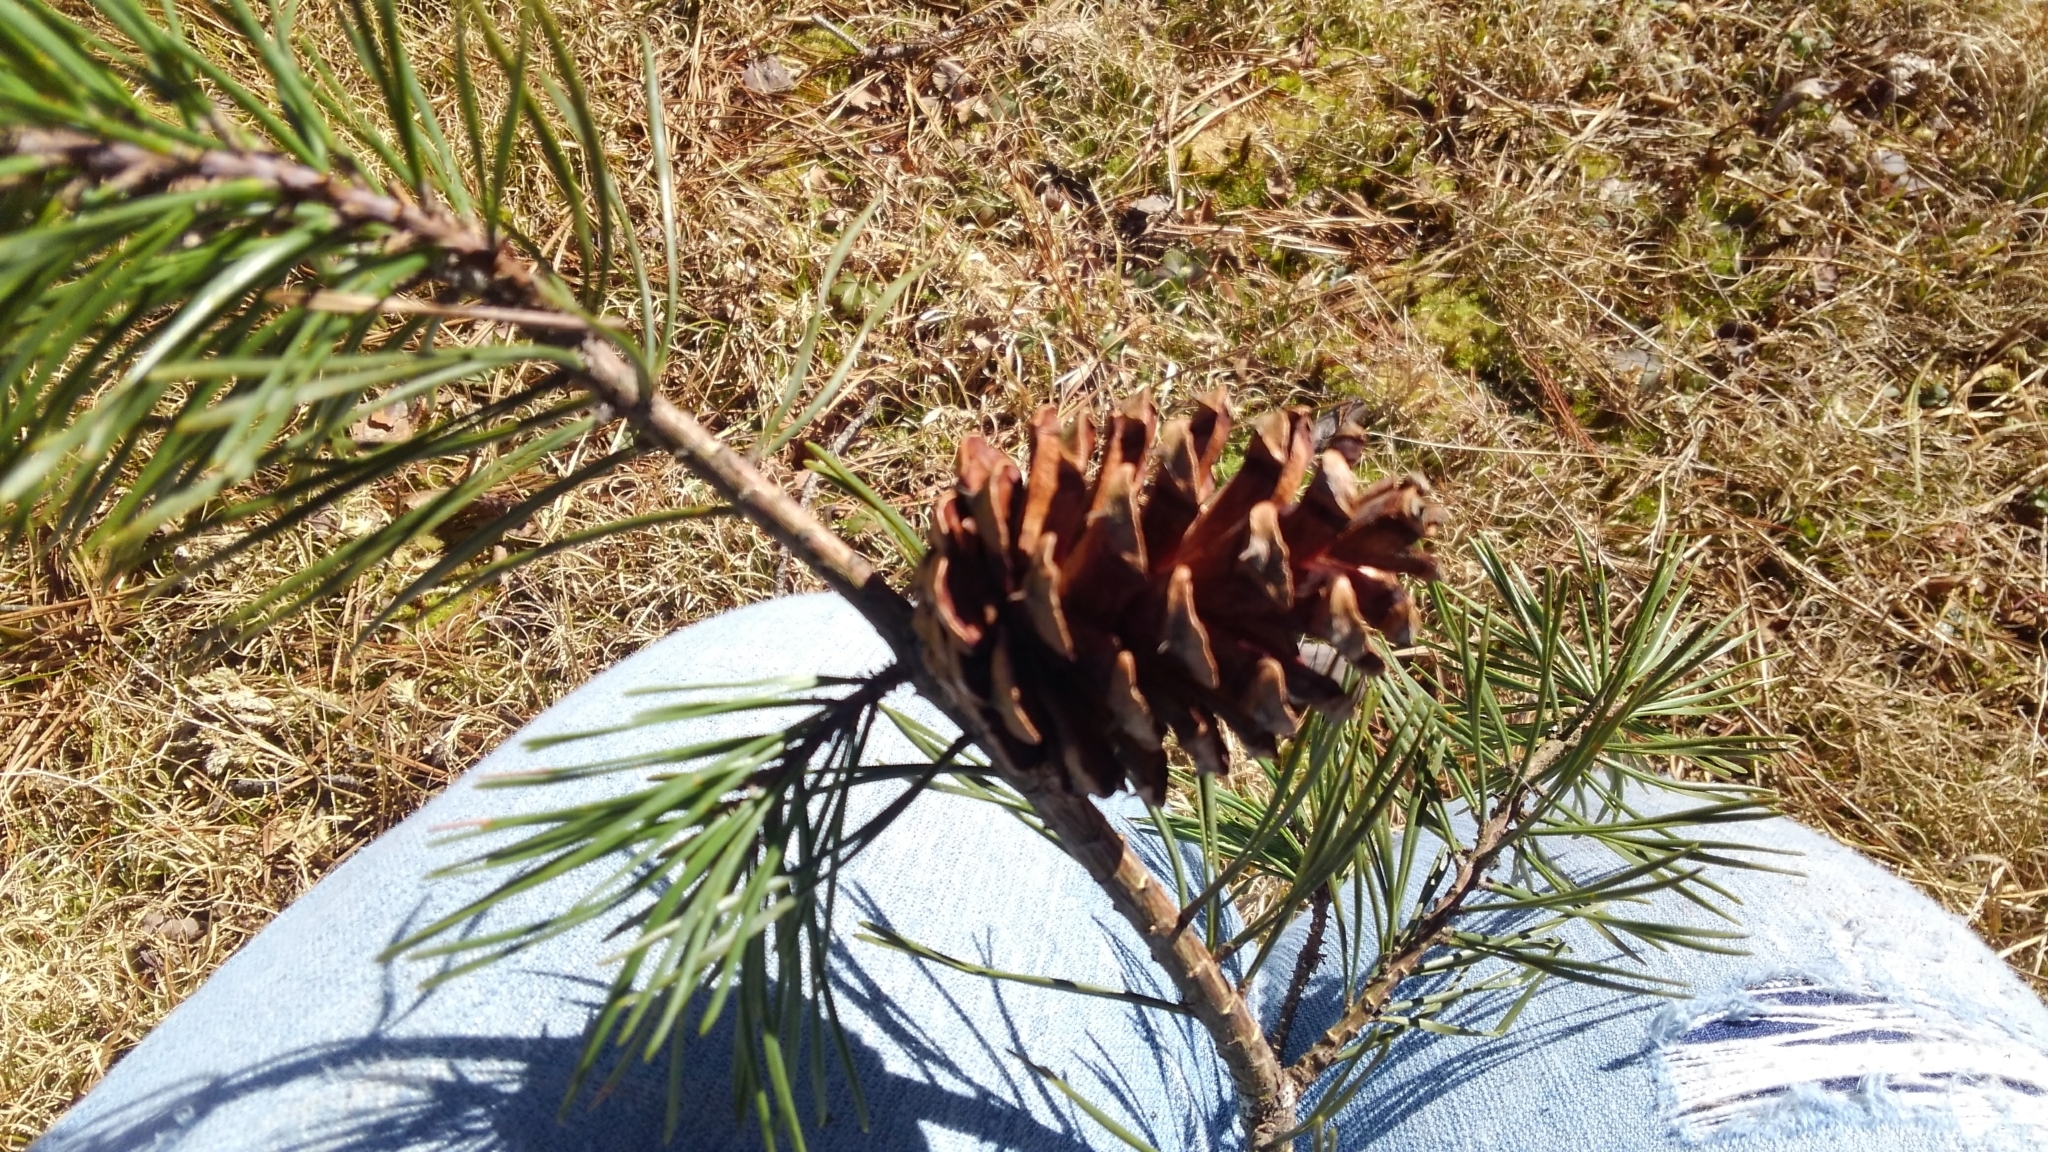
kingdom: Plantae
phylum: Tracheophyta
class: Pinopsida
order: Pinales
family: Pinaceae
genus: Pinus
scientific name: Pinus virginiana
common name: Scrub pine
